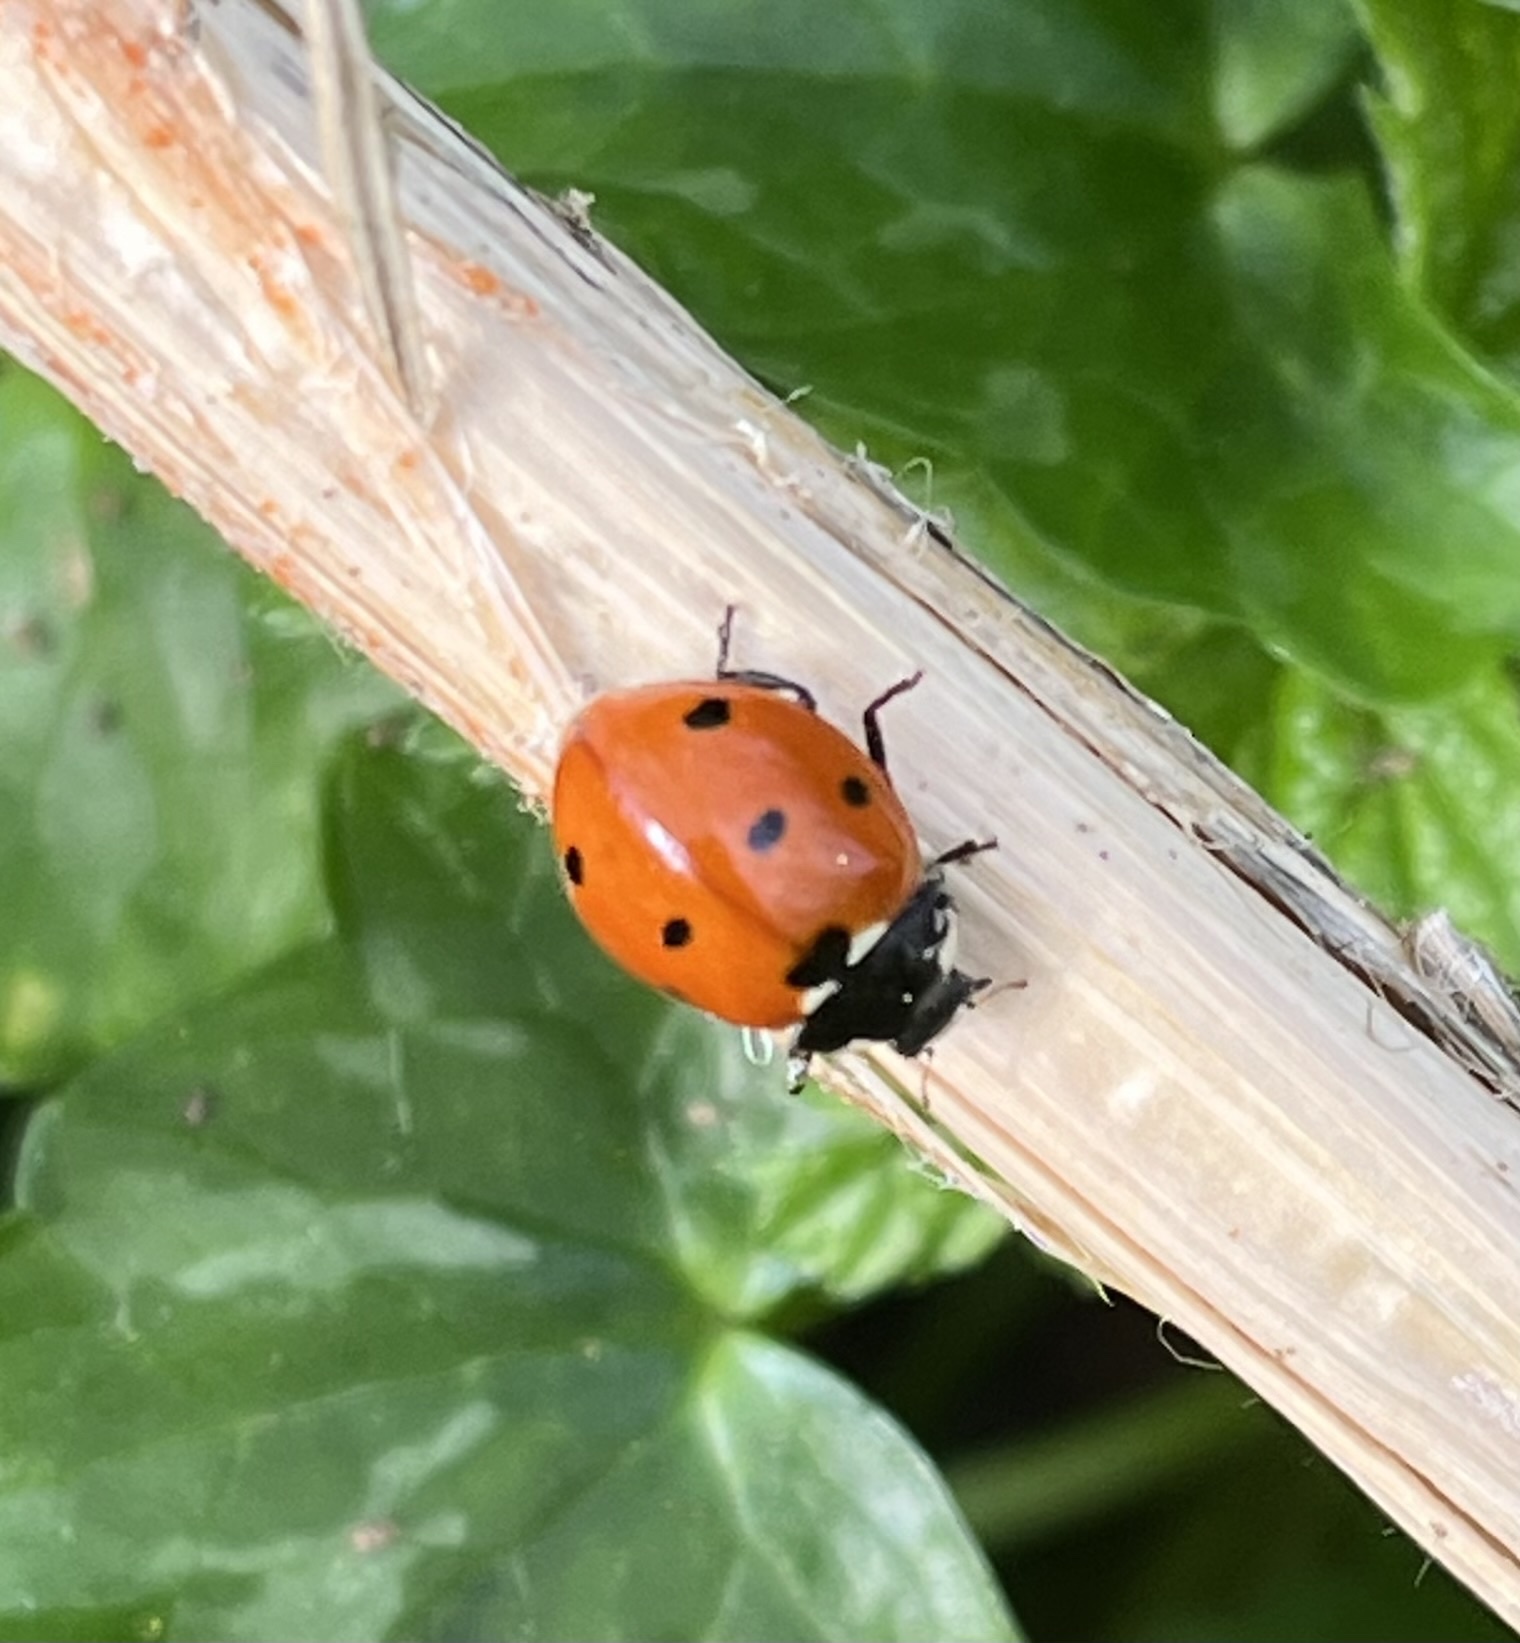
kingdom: Animalia
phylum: Arthropoda
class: Insecta
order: Coleoptera
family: Coccinellidae
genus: Coccinella
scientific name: Coccinella septempunctata
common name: Sevenspotted lady beetle
